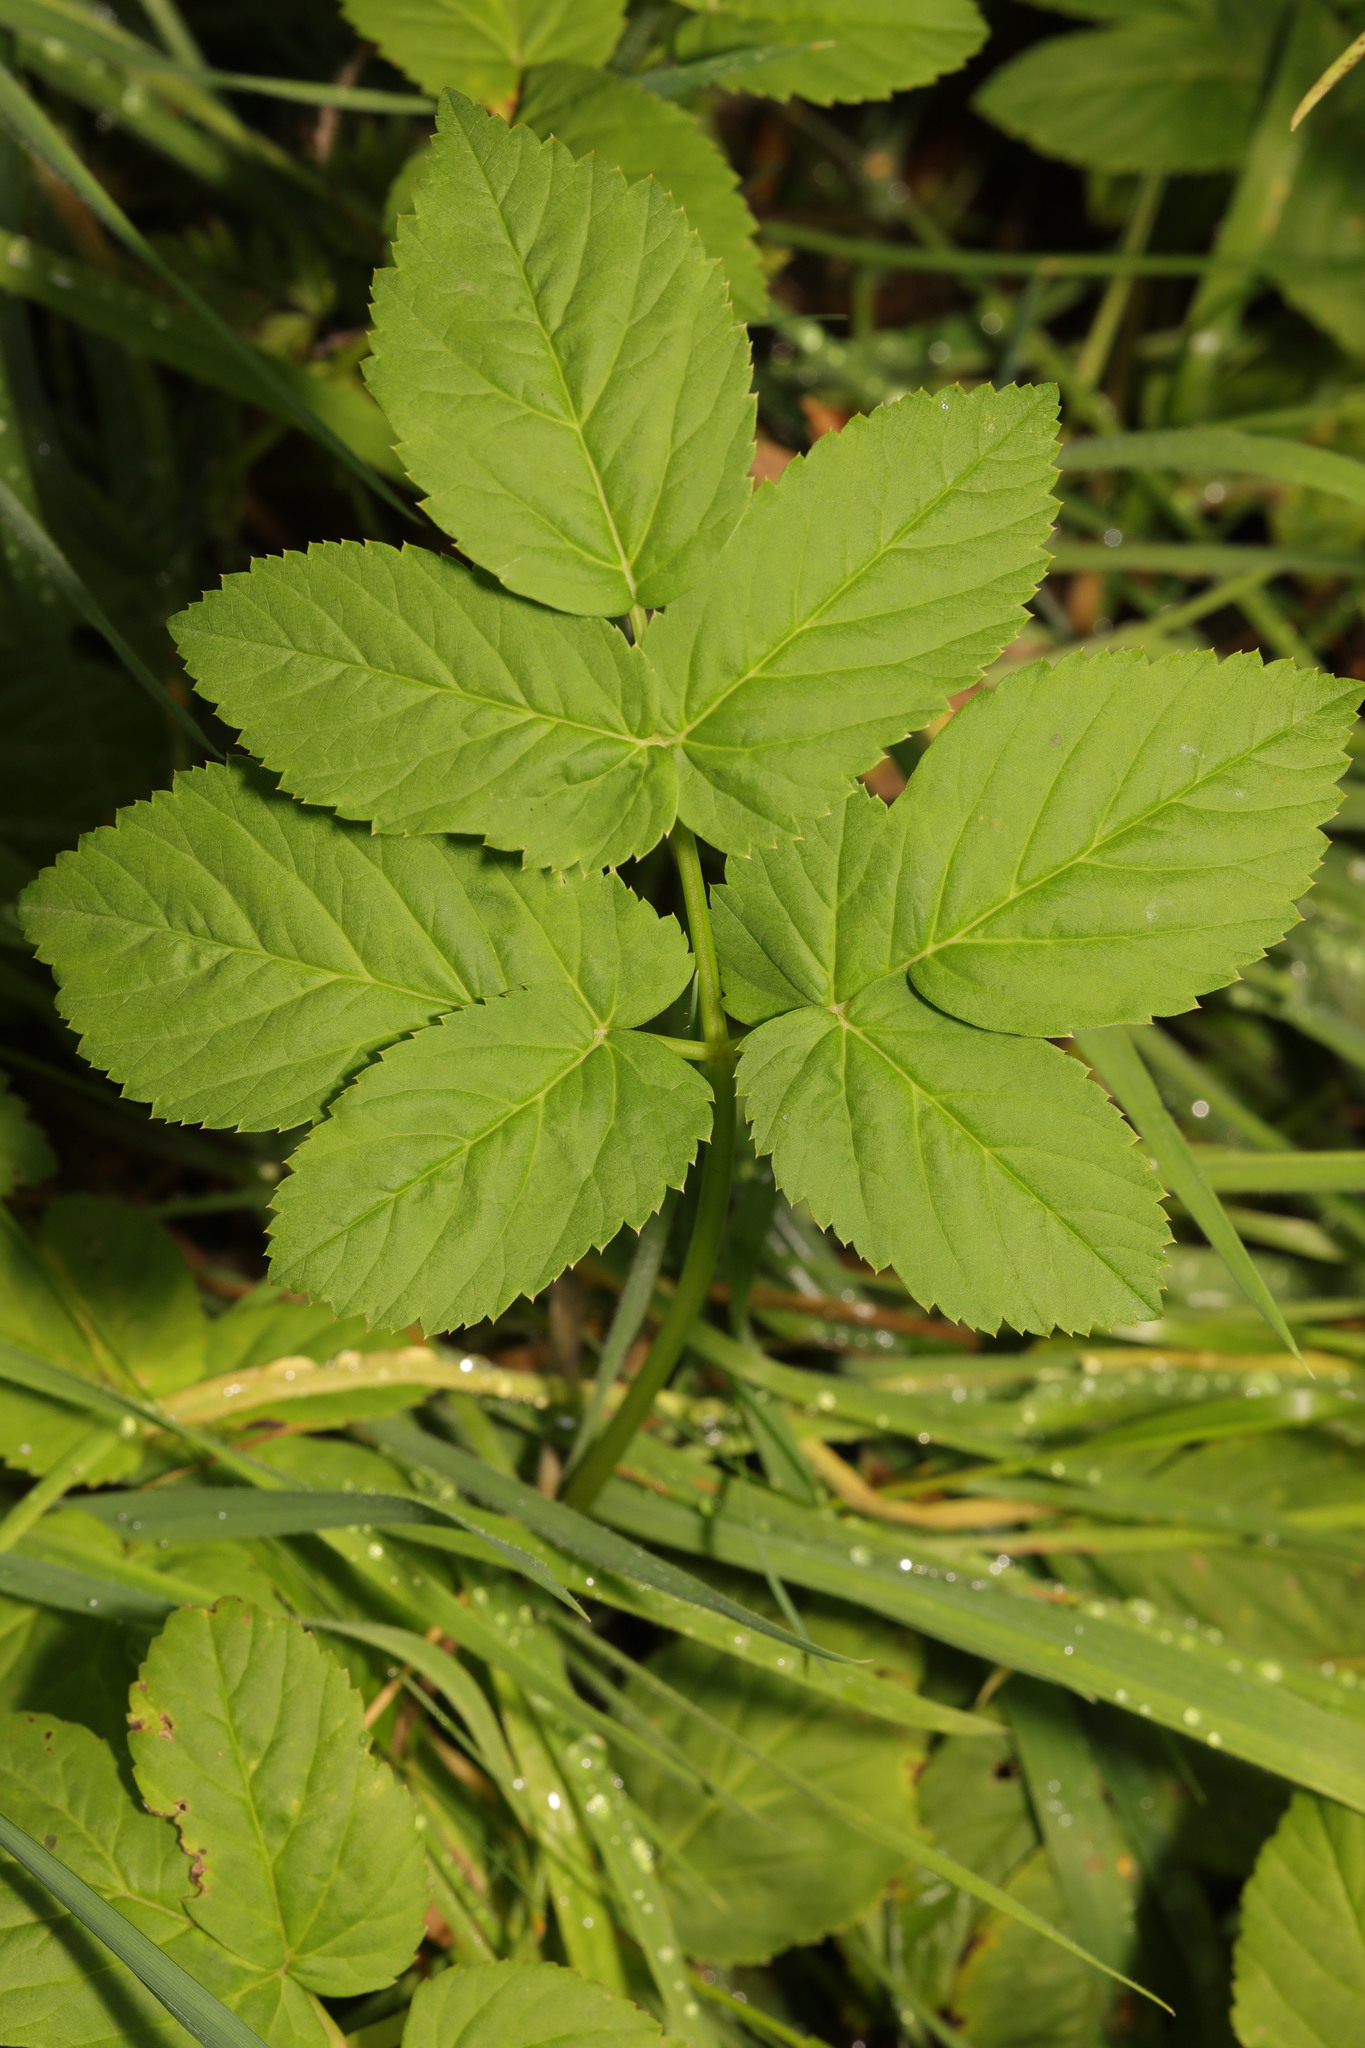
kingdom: Plantae
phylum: Tracheophyta
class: Magnoliopsida
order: Apiales
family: Apiaceae
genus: Aegopodium
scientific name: Aegopodium podagraria
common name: Ground-elder
